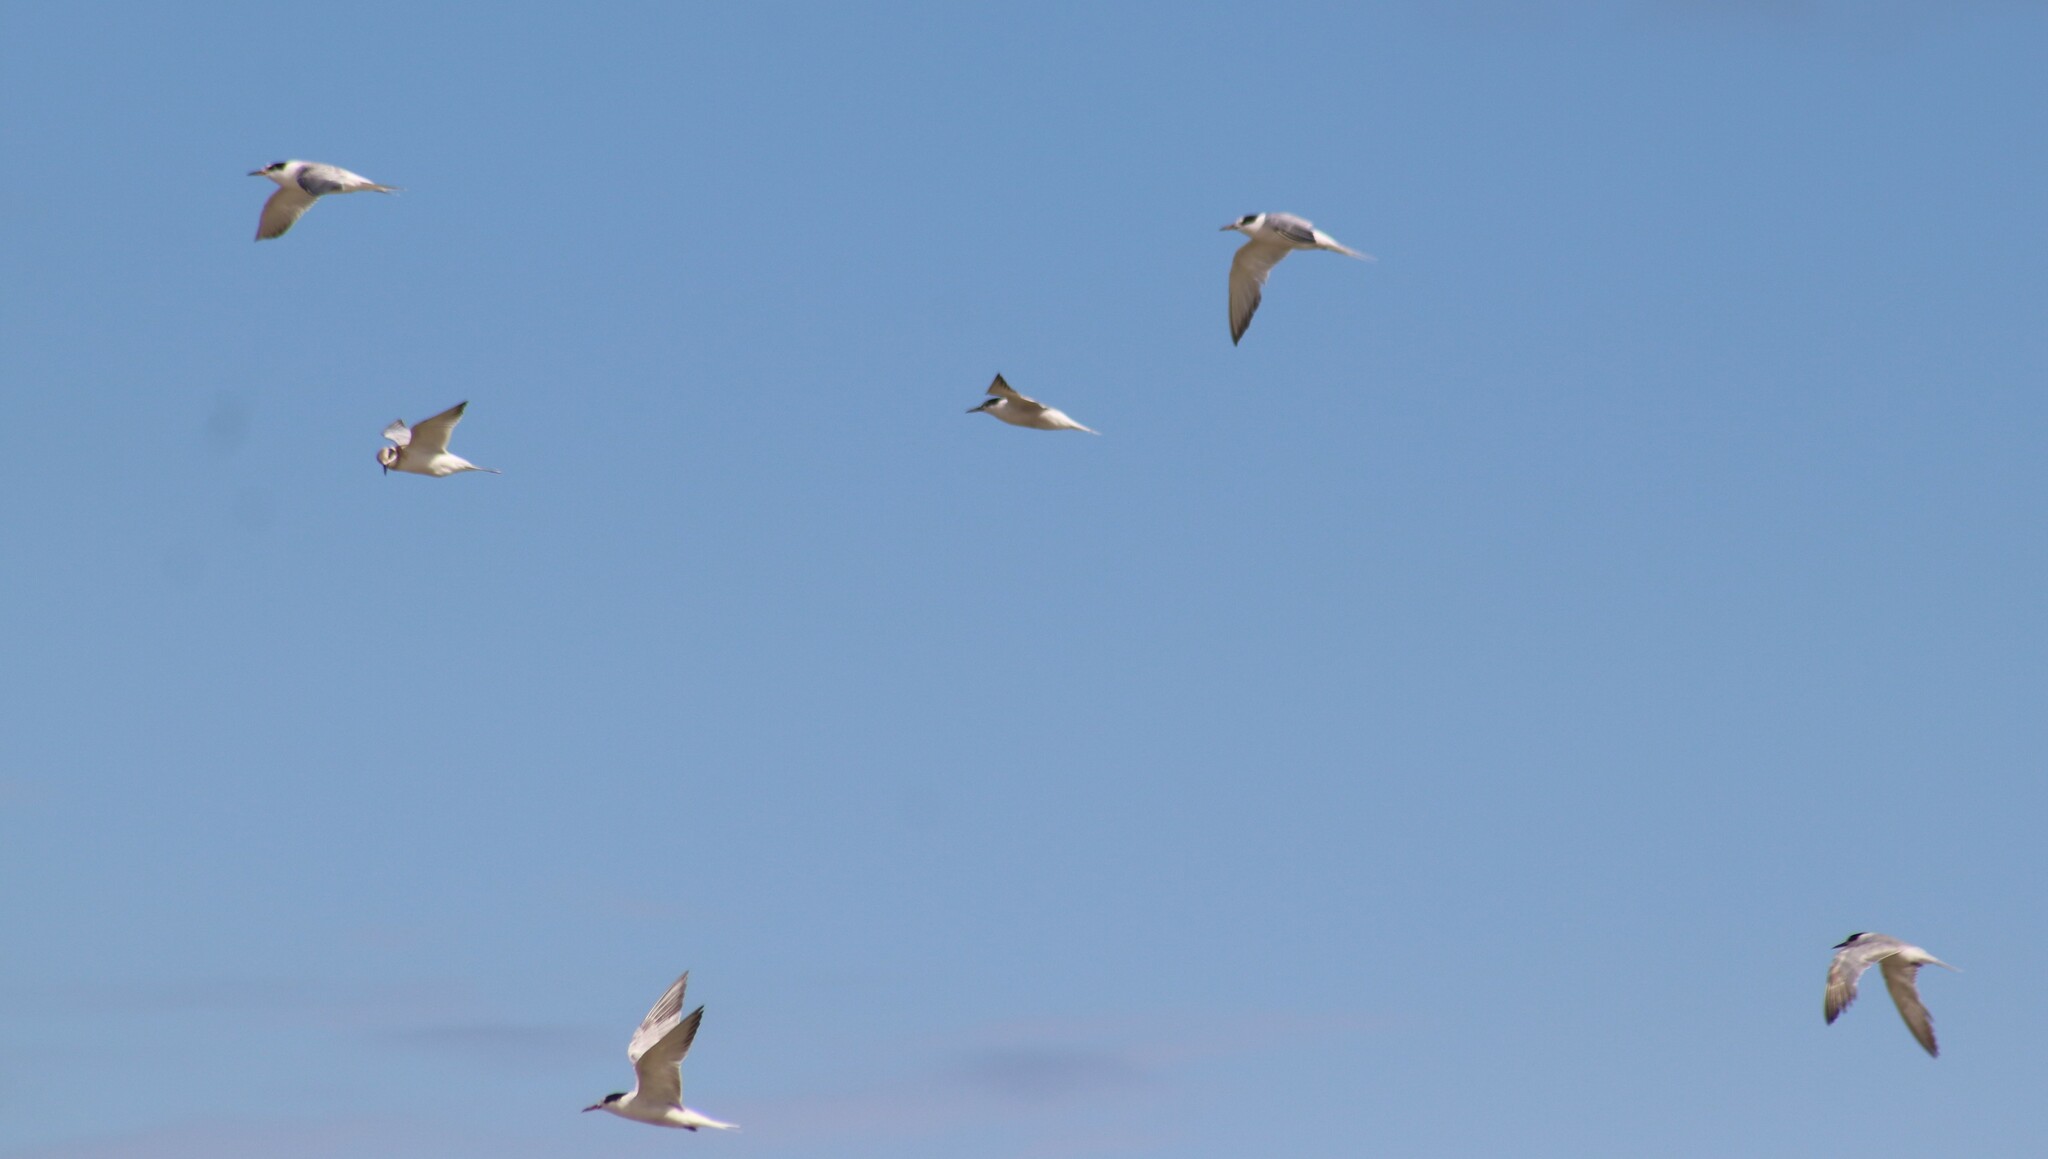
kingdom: Animalia
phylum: Chordata
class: Aves
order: Charadriiformes
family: Laridae
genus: Sterna
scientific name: Sterna hirundo
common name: Common tern
